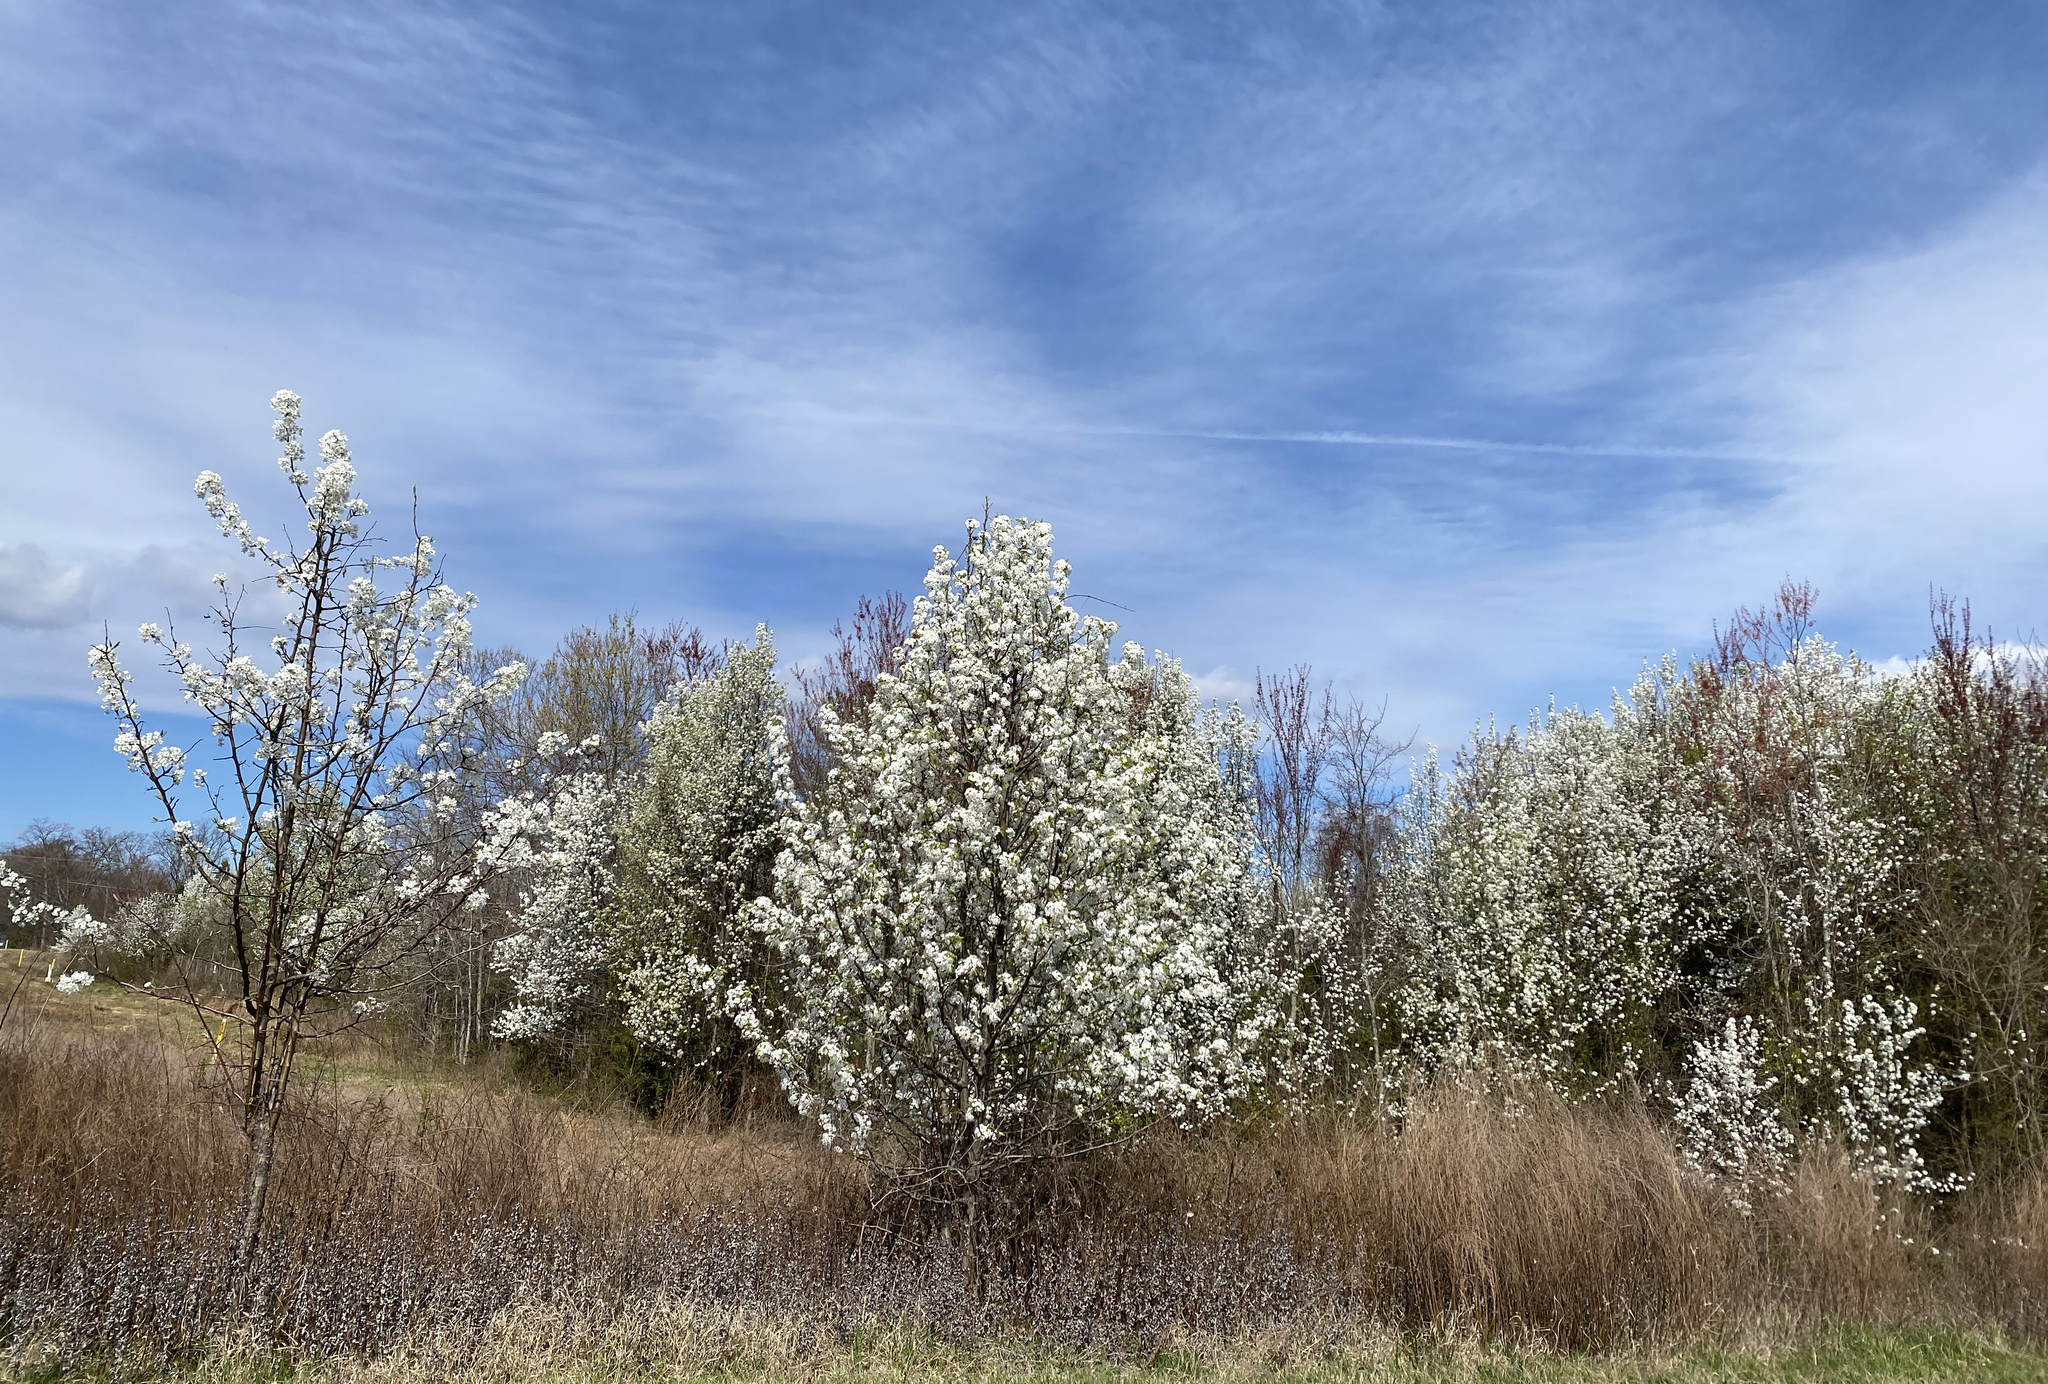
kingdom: Plantae
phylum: Tracheophyta
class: Magnoliopsida
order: Rosales
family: Rosaceae
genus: Pyrus
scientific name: Pyrus calleryana
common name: Callery pear
